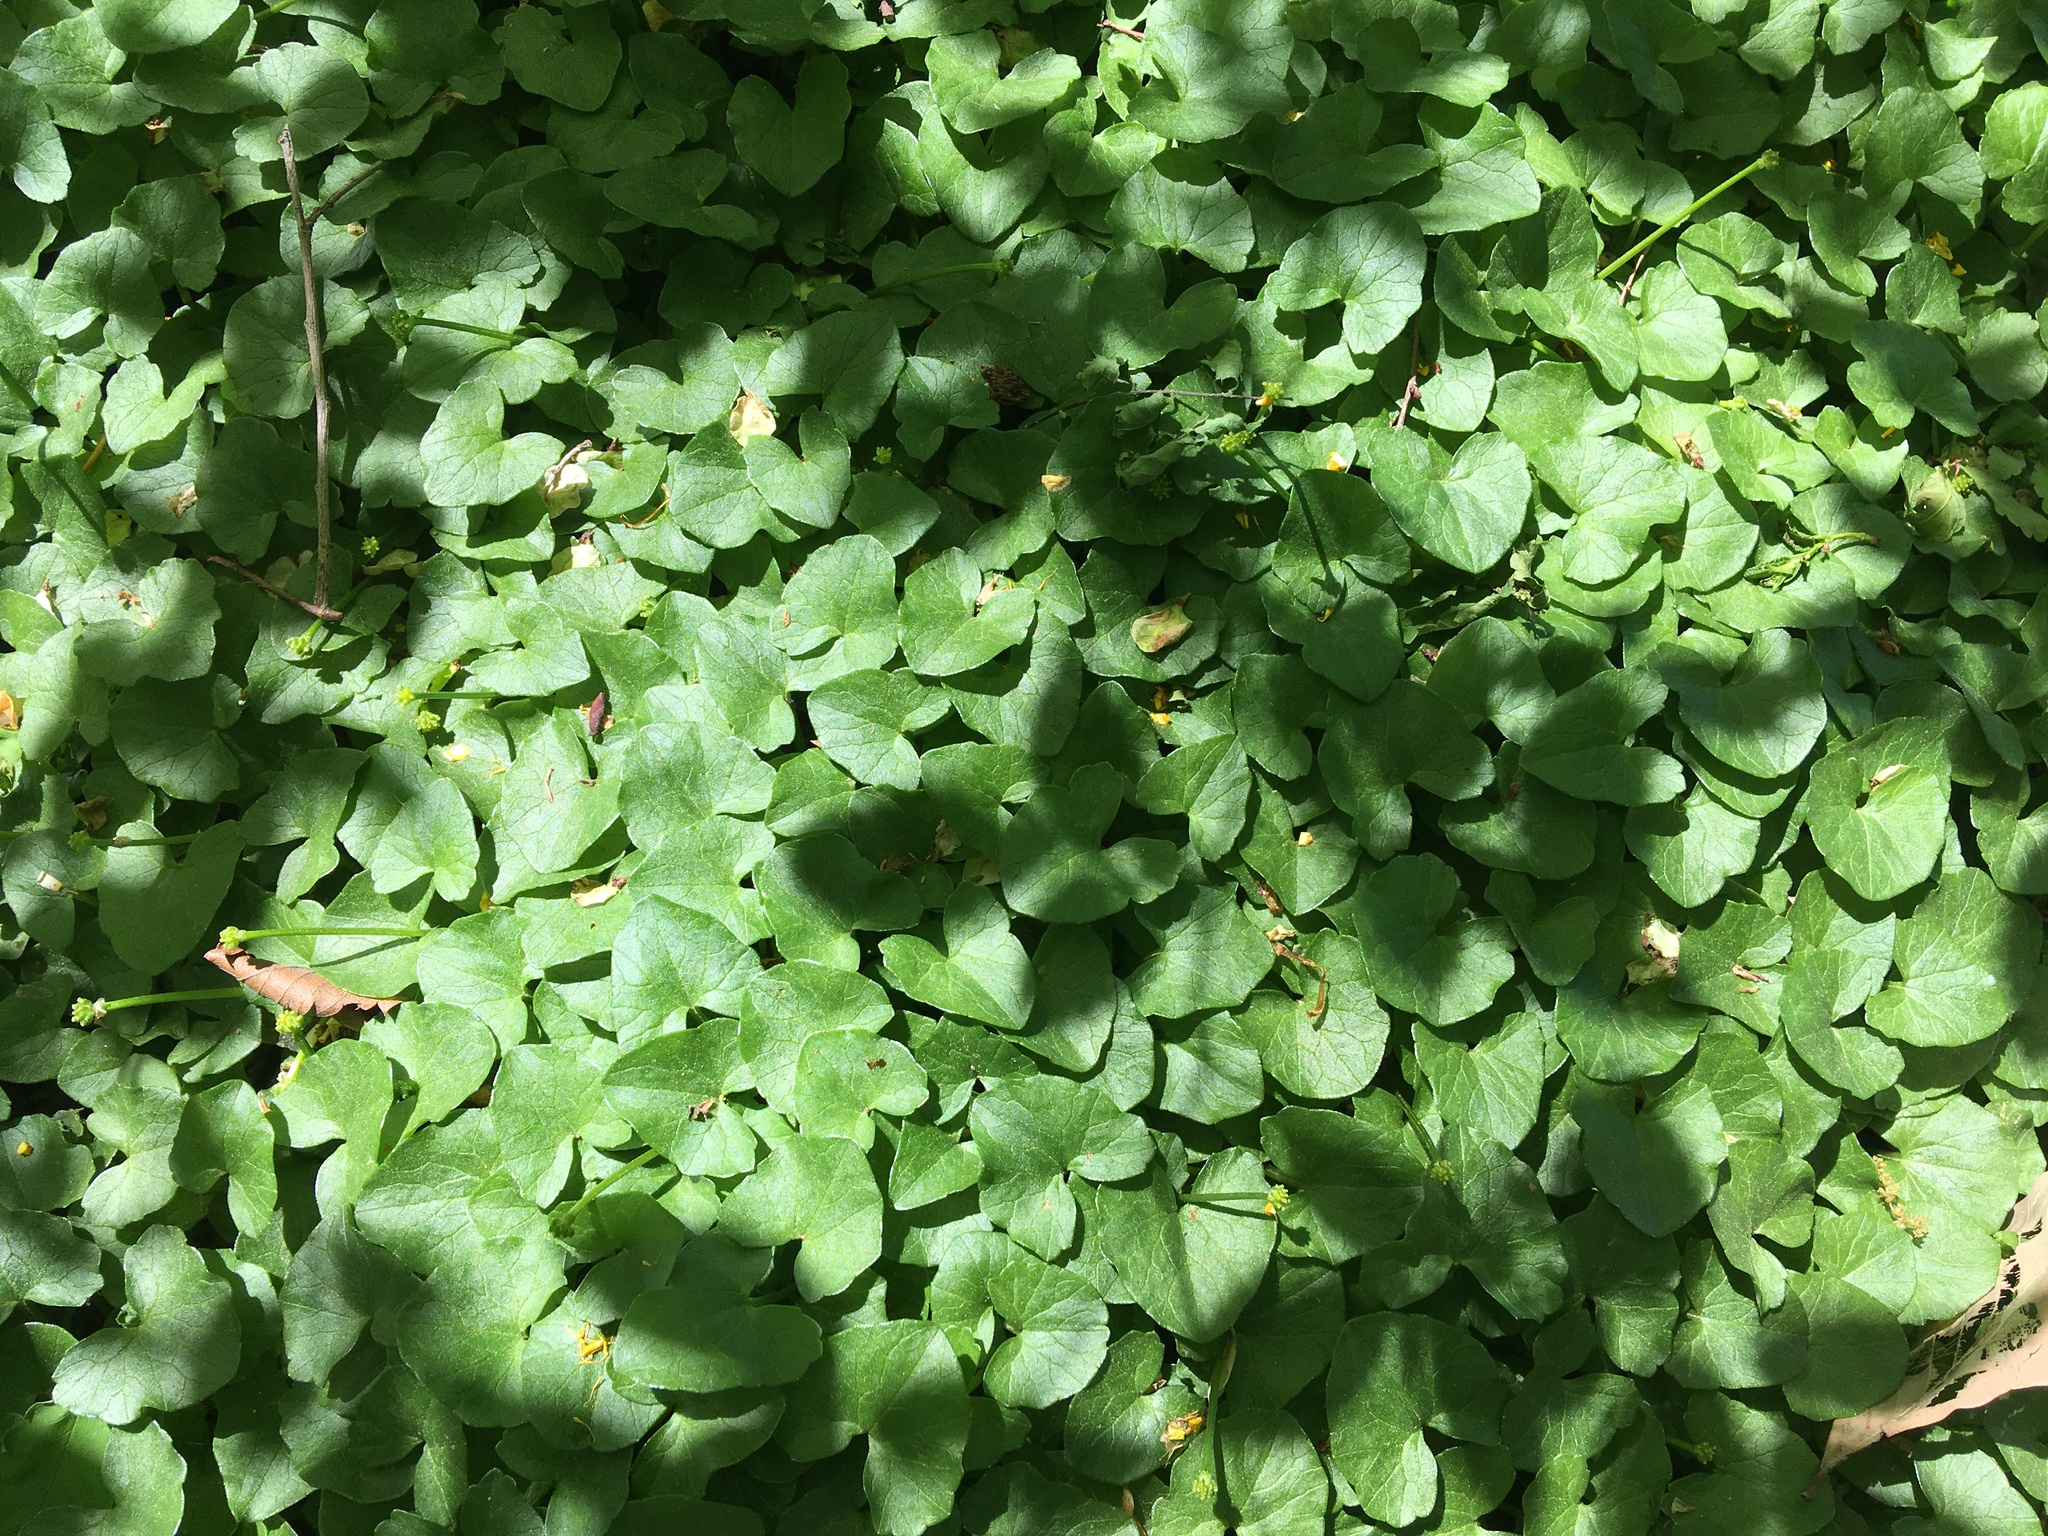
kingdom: Plantae
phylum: Tracheophyta
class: Magnoliopsida
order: Ranunculales
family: Ranunculaceae
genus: Ficaria
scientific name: Ficaria verna
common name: Lesser celandine
